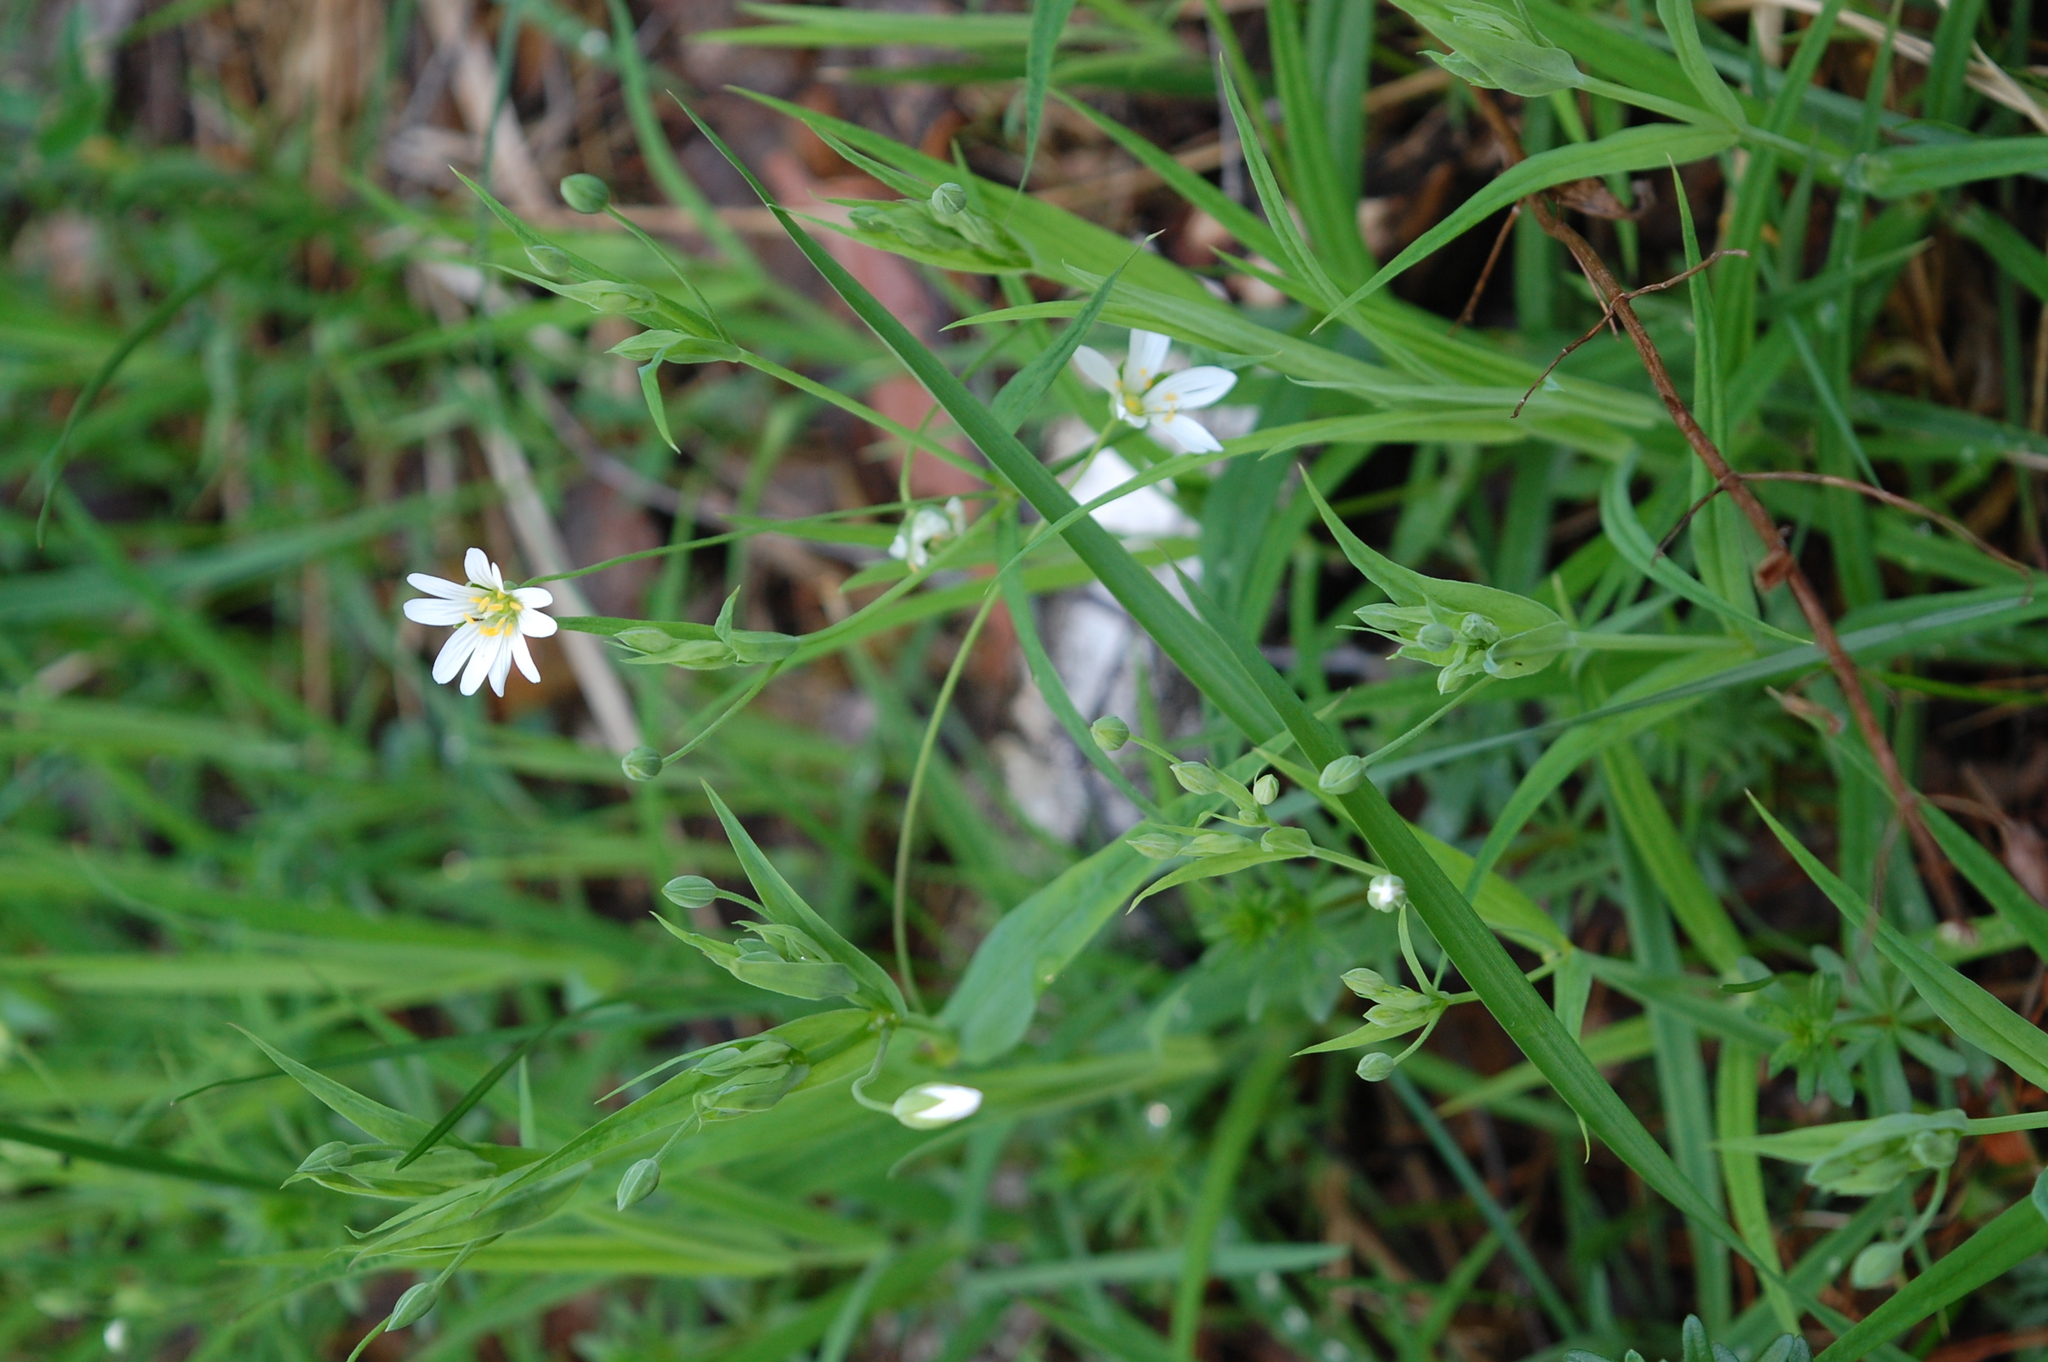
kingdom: Plantae
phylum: Tracheophyta
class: Magnoliopsida
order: Caryophyllales
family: Caryophyllaceae
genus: Rabelera
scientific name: Rabelera holostea
